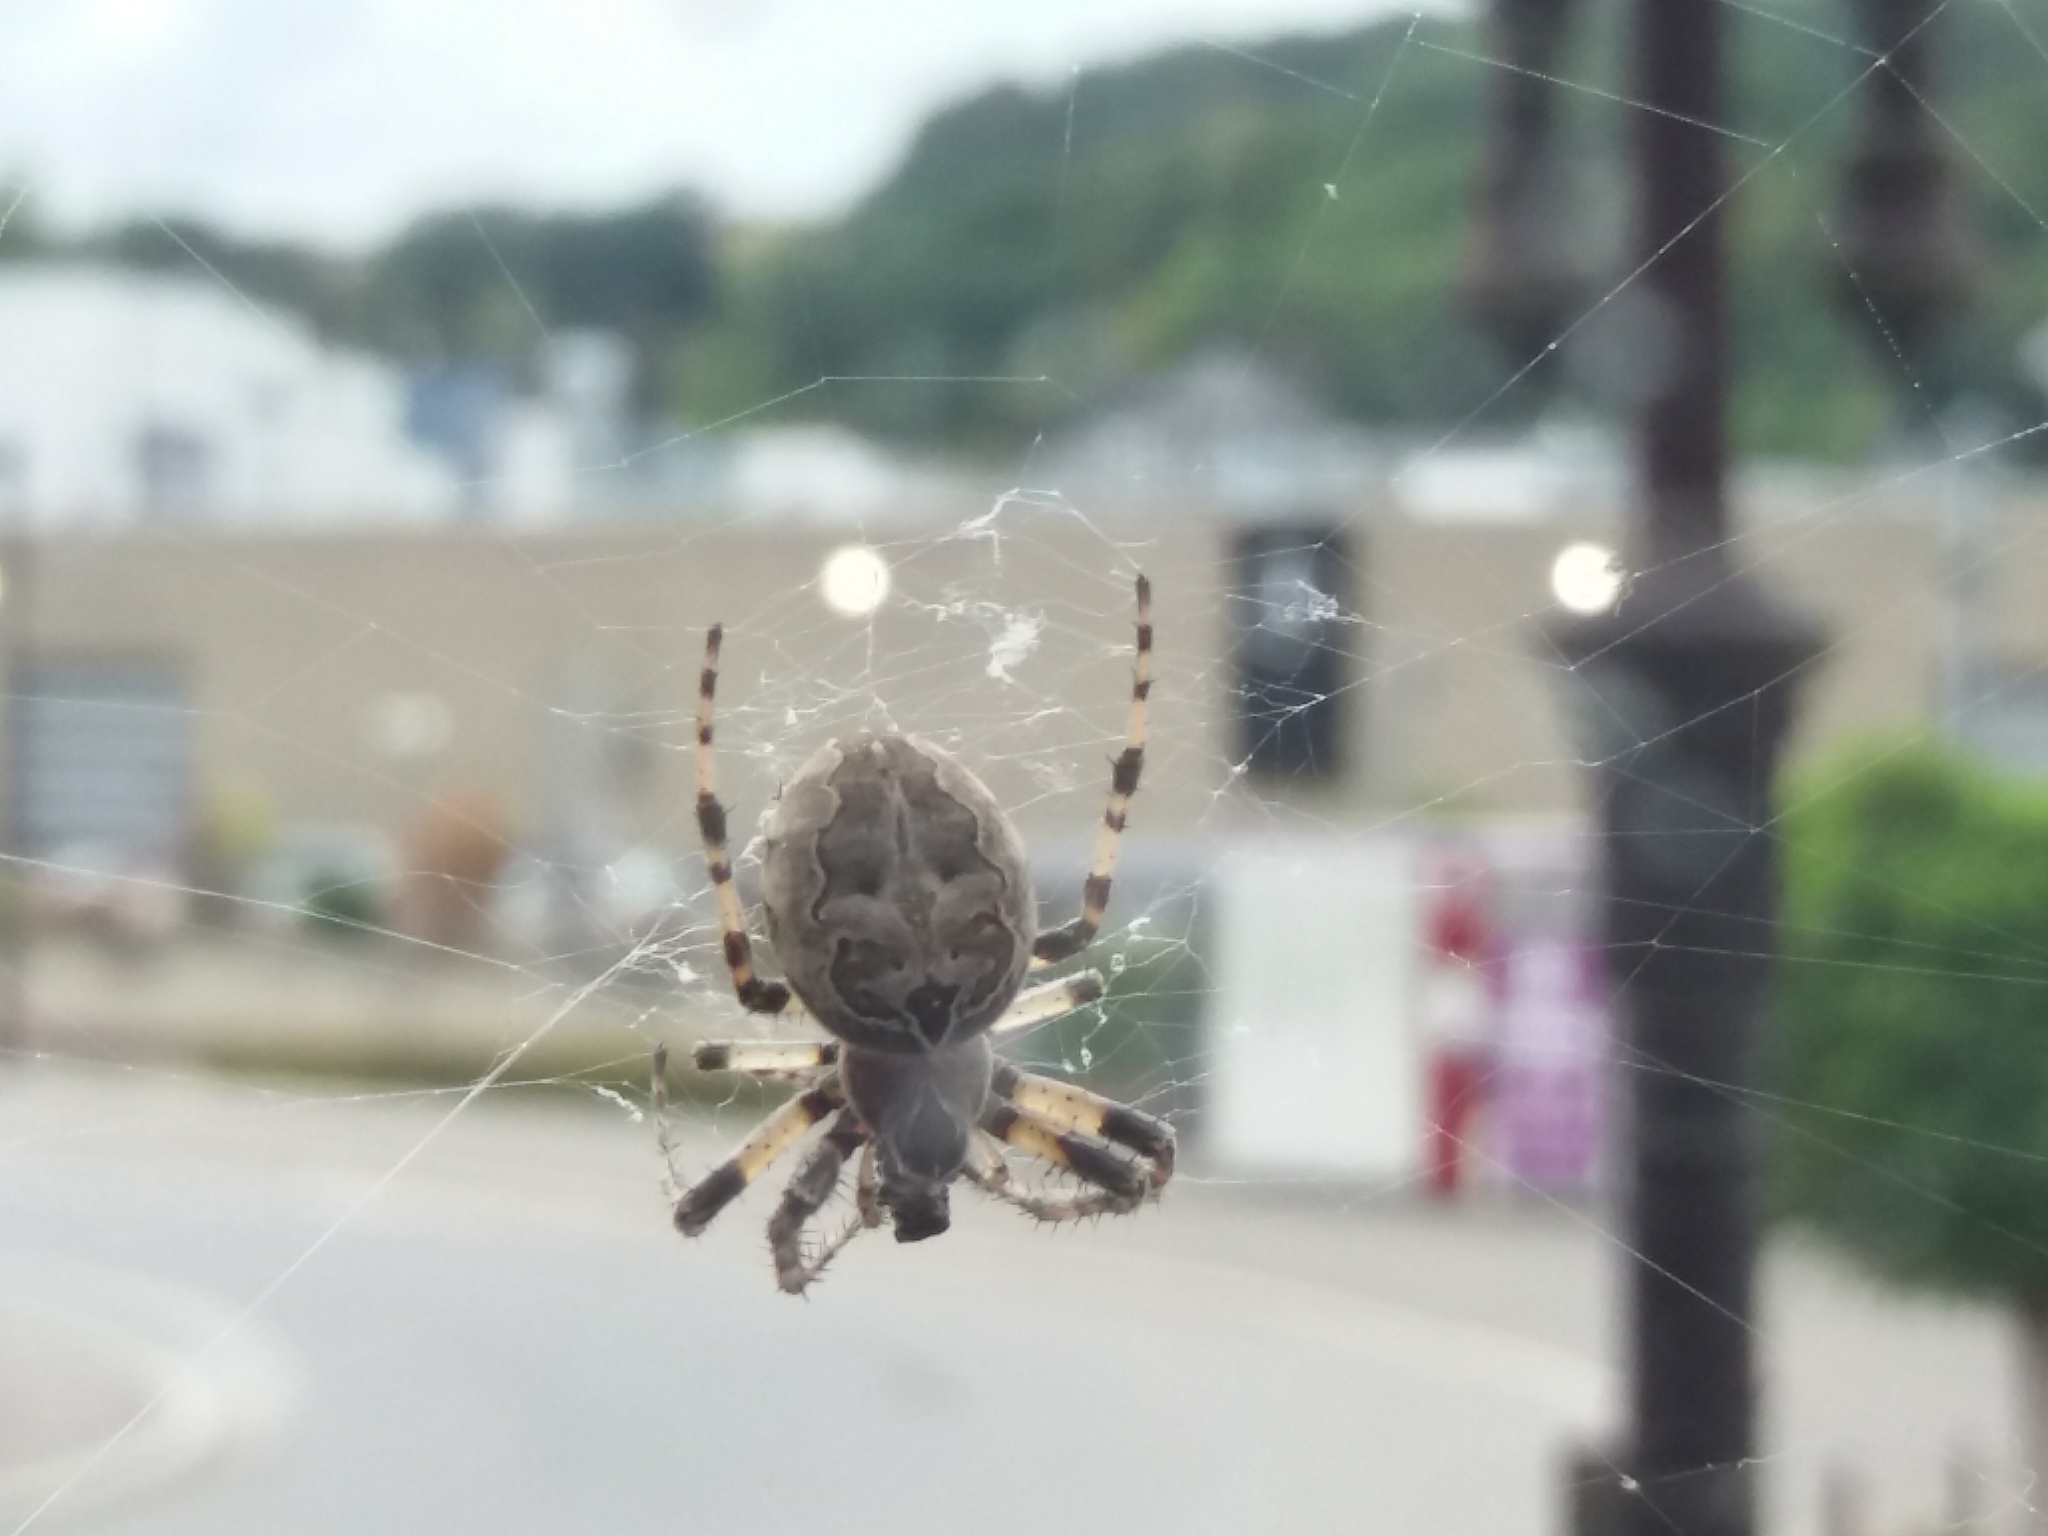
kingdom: Animalia
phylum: Arthropoda
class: Arachnida
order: Araneae
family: Araneidae
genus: Larinioides
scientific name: Larinioides sclopetarius
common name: Bridge orbweaver
